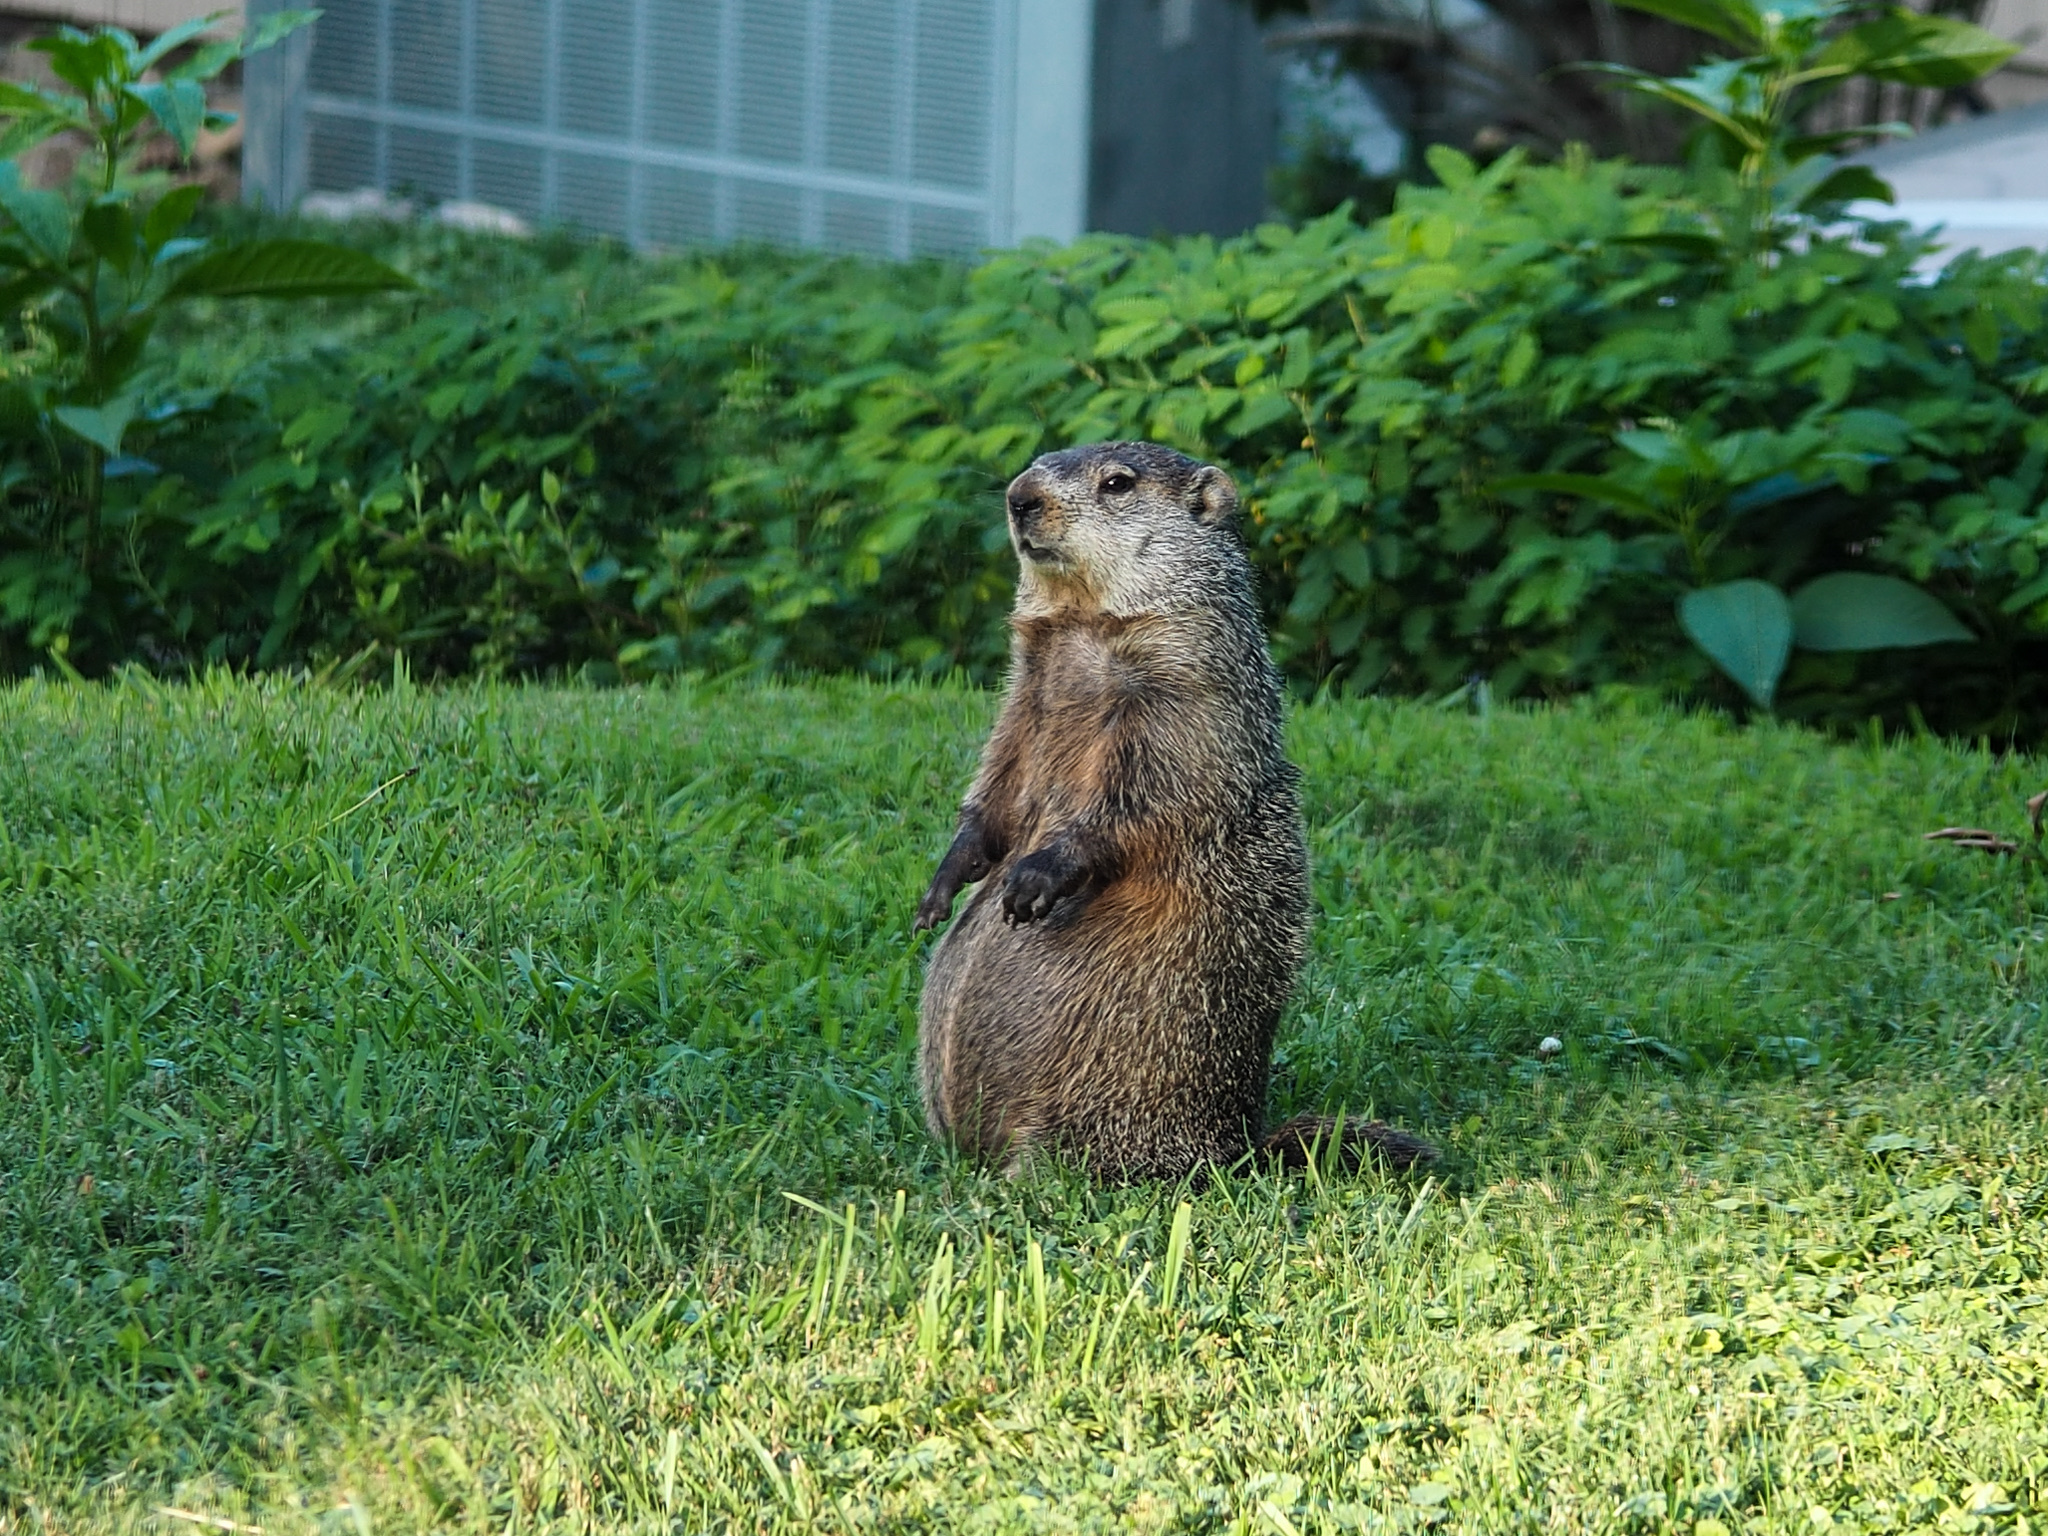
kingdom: Animalia
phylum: Chordata
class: Mammalia
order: Rodentia
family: Sciuridae
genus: Marmota
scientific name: Marmota monax
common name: Groundhog
